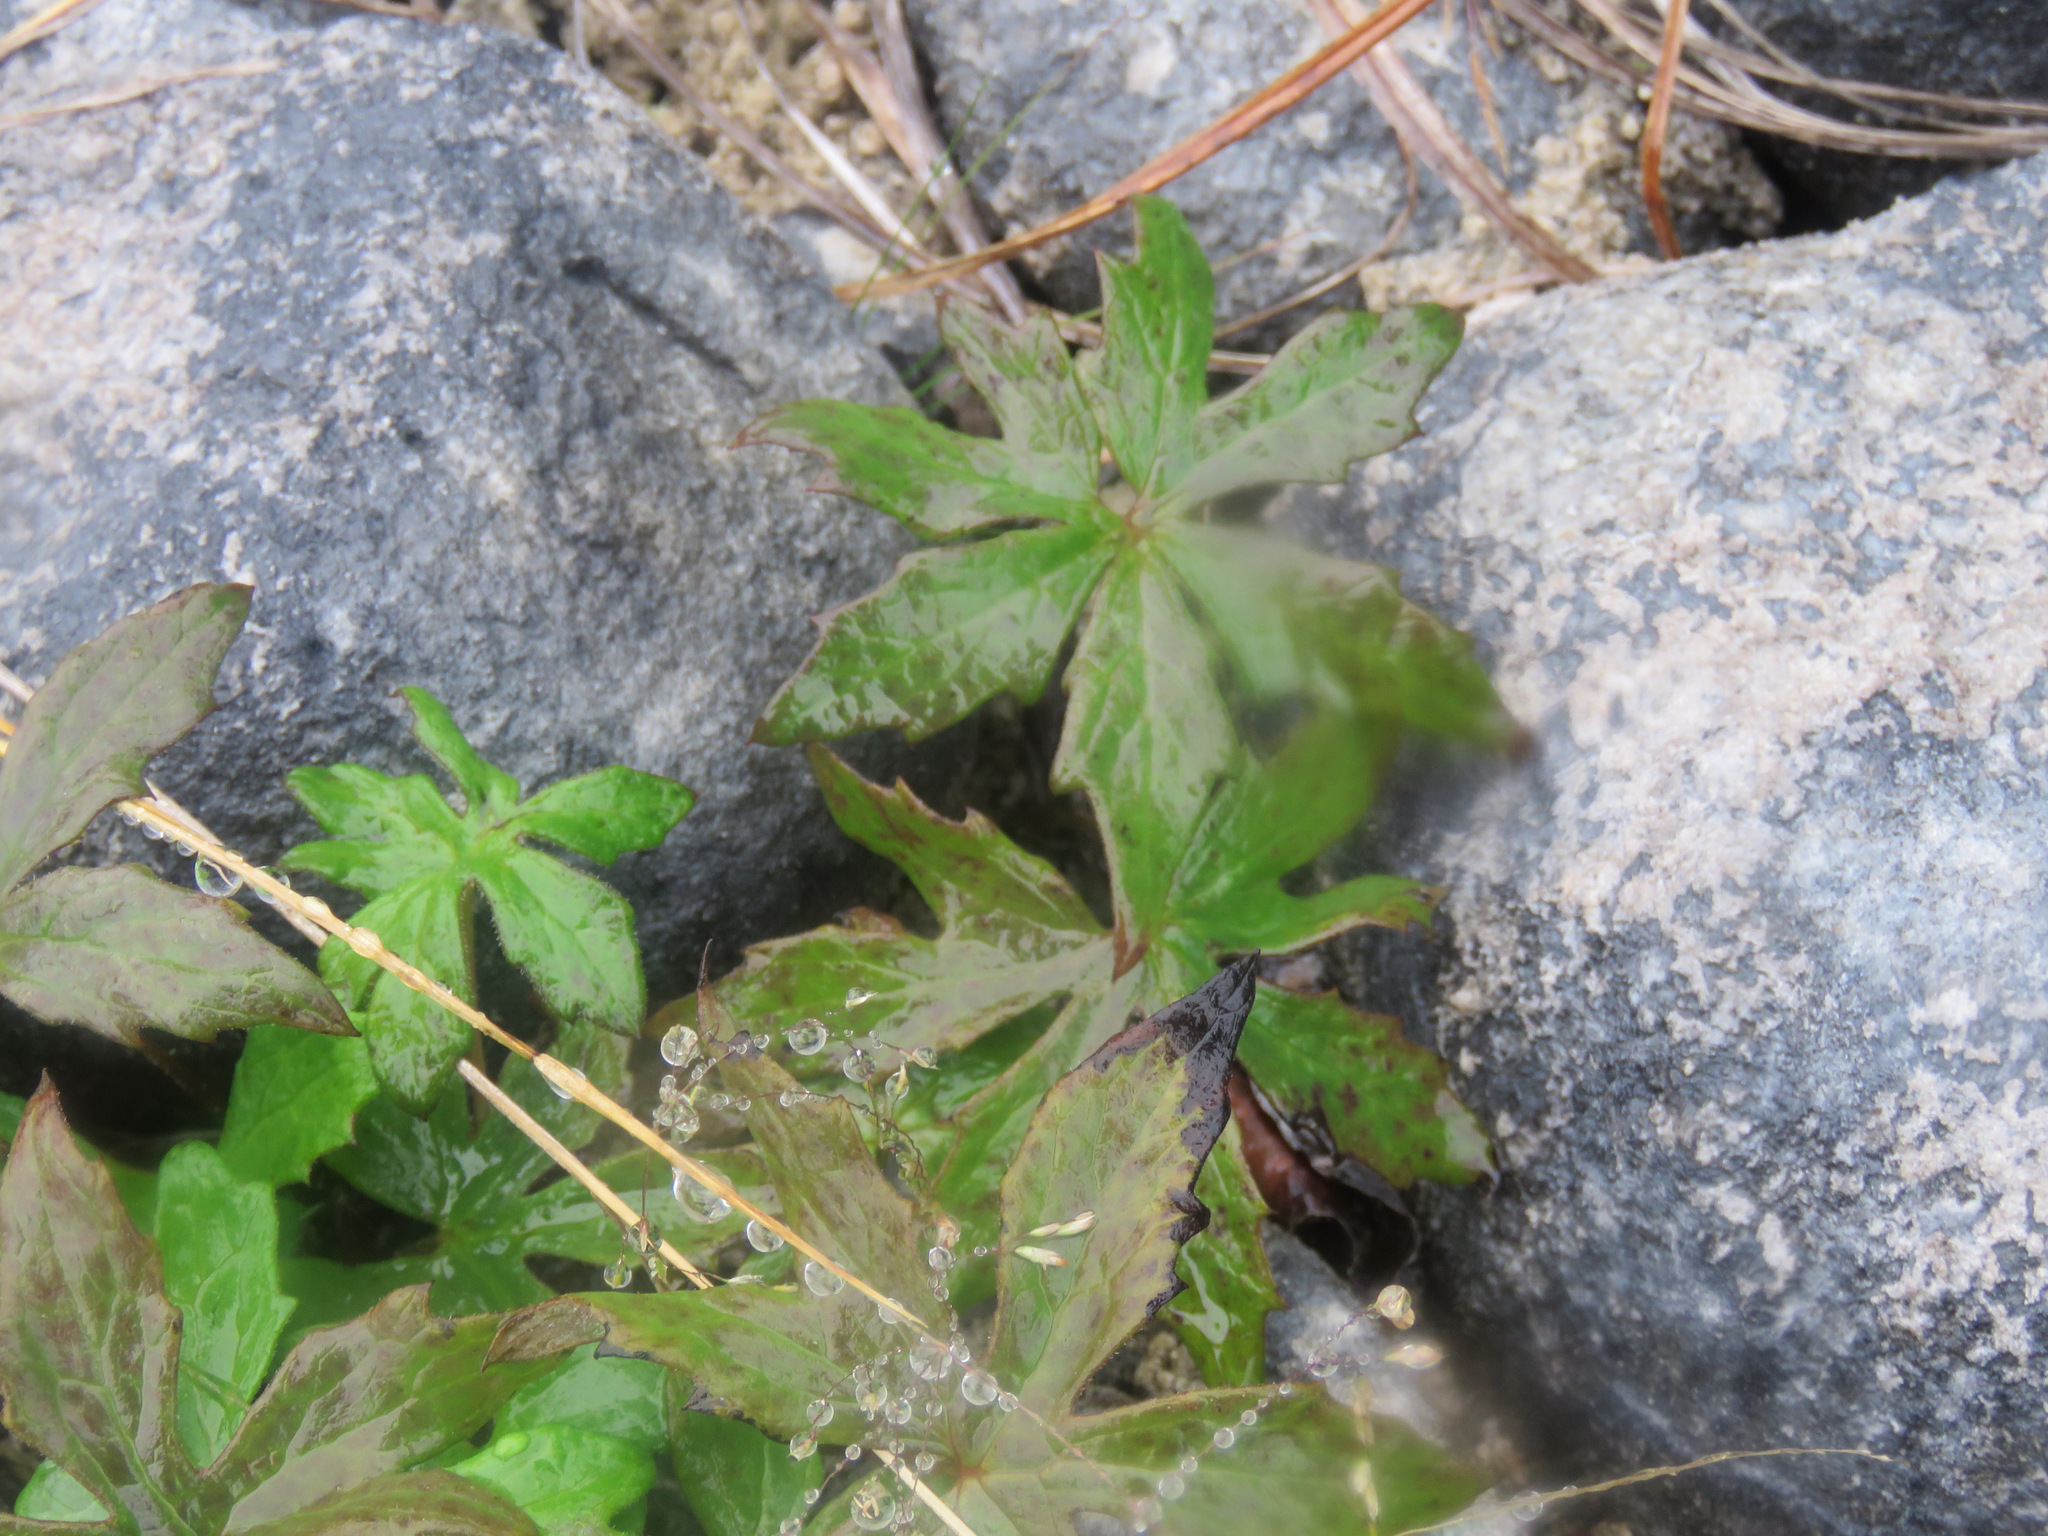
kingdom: Plantae
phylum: Tracheophyta
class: Magnoliopsida
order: Asterales
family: Asteraceae
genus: Petasites
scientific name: Petasites frigidus
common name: Arctic butterbur
